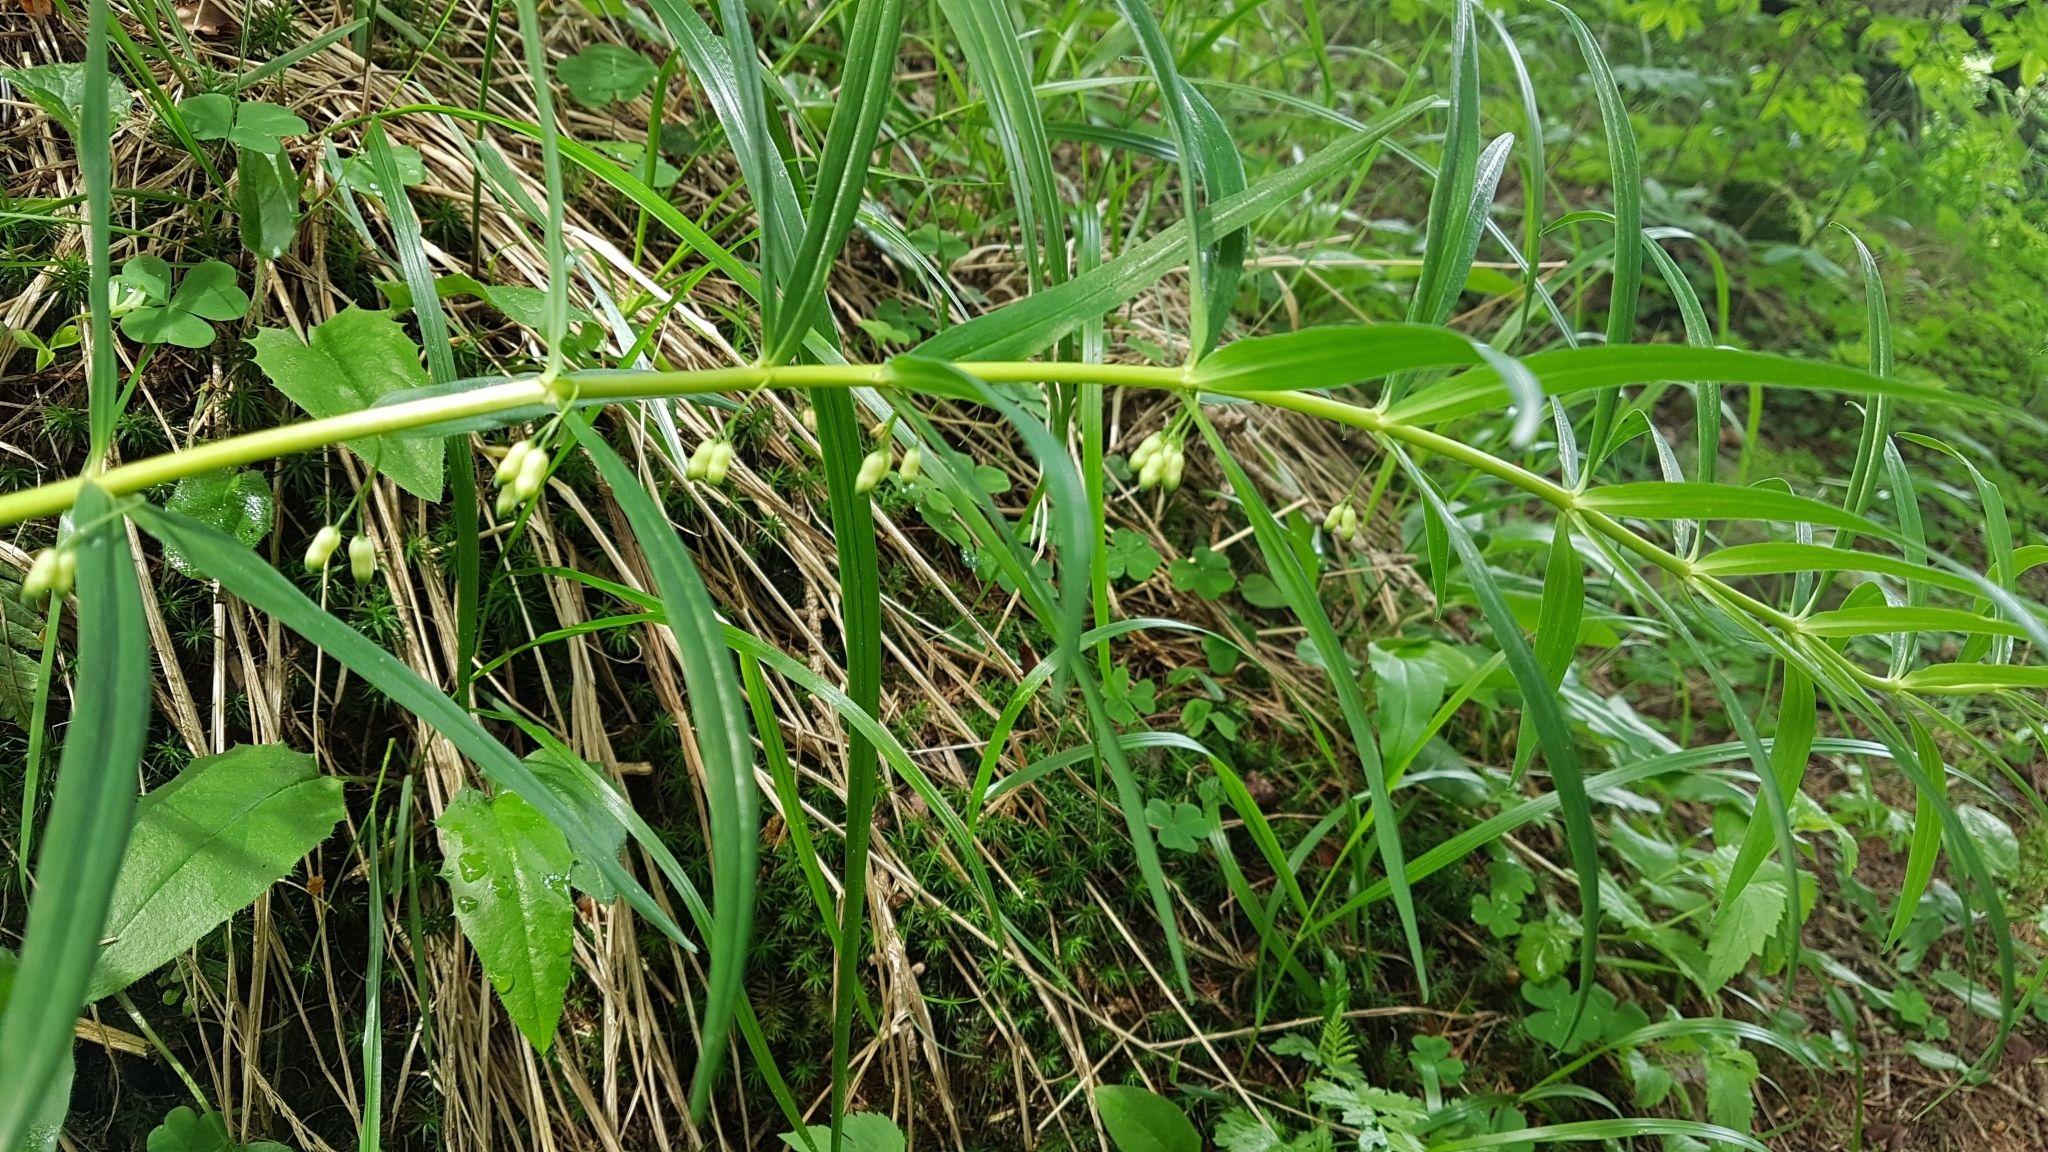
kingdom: Plantae
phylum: Tracheophyta
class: Liliopsida
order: Asparagales
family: Asparagaceae
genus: Polygonatum
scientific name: Polygonatum verticillatum
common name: Whorled solomon's-seal
